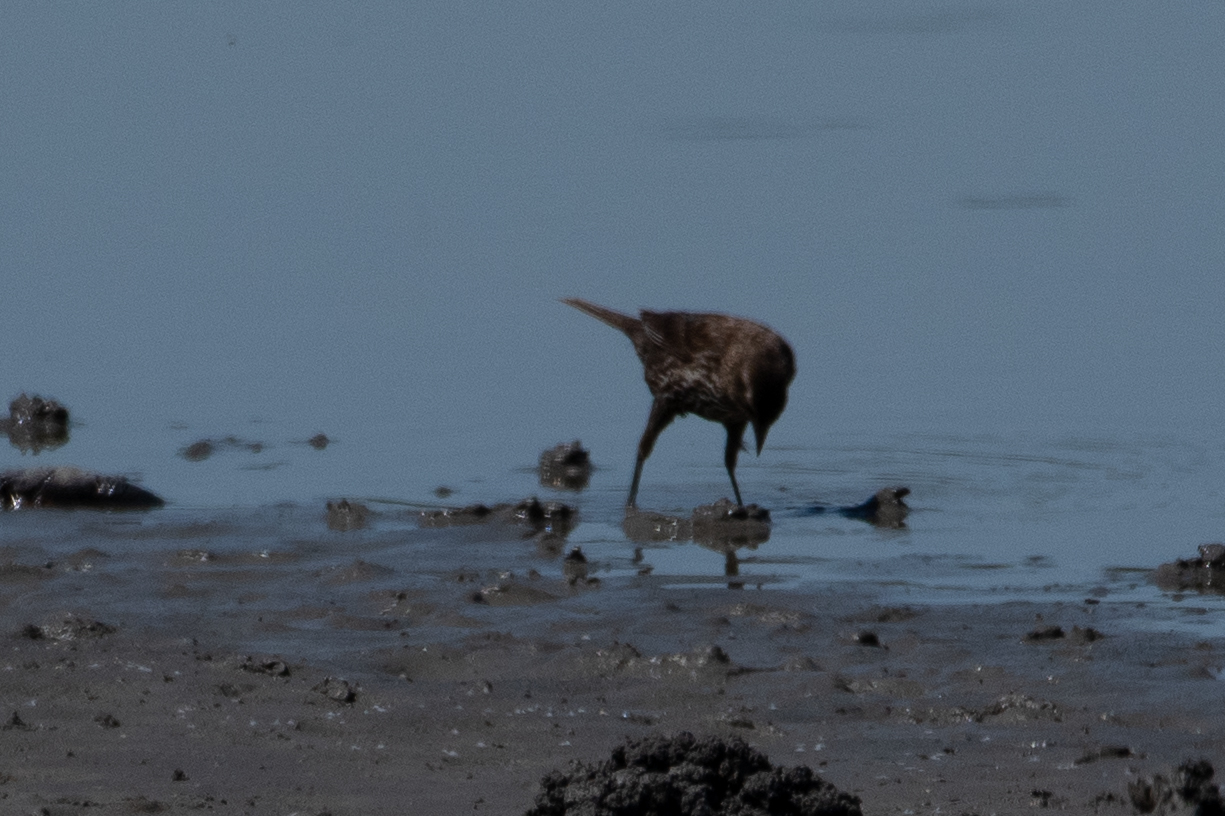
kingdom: Animalia
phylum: Chordata
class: Aves
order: Passeriformes
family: Icteridae
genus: Agelaius
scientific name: Agelaius phoeniceus
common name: Red-winged blackbird
